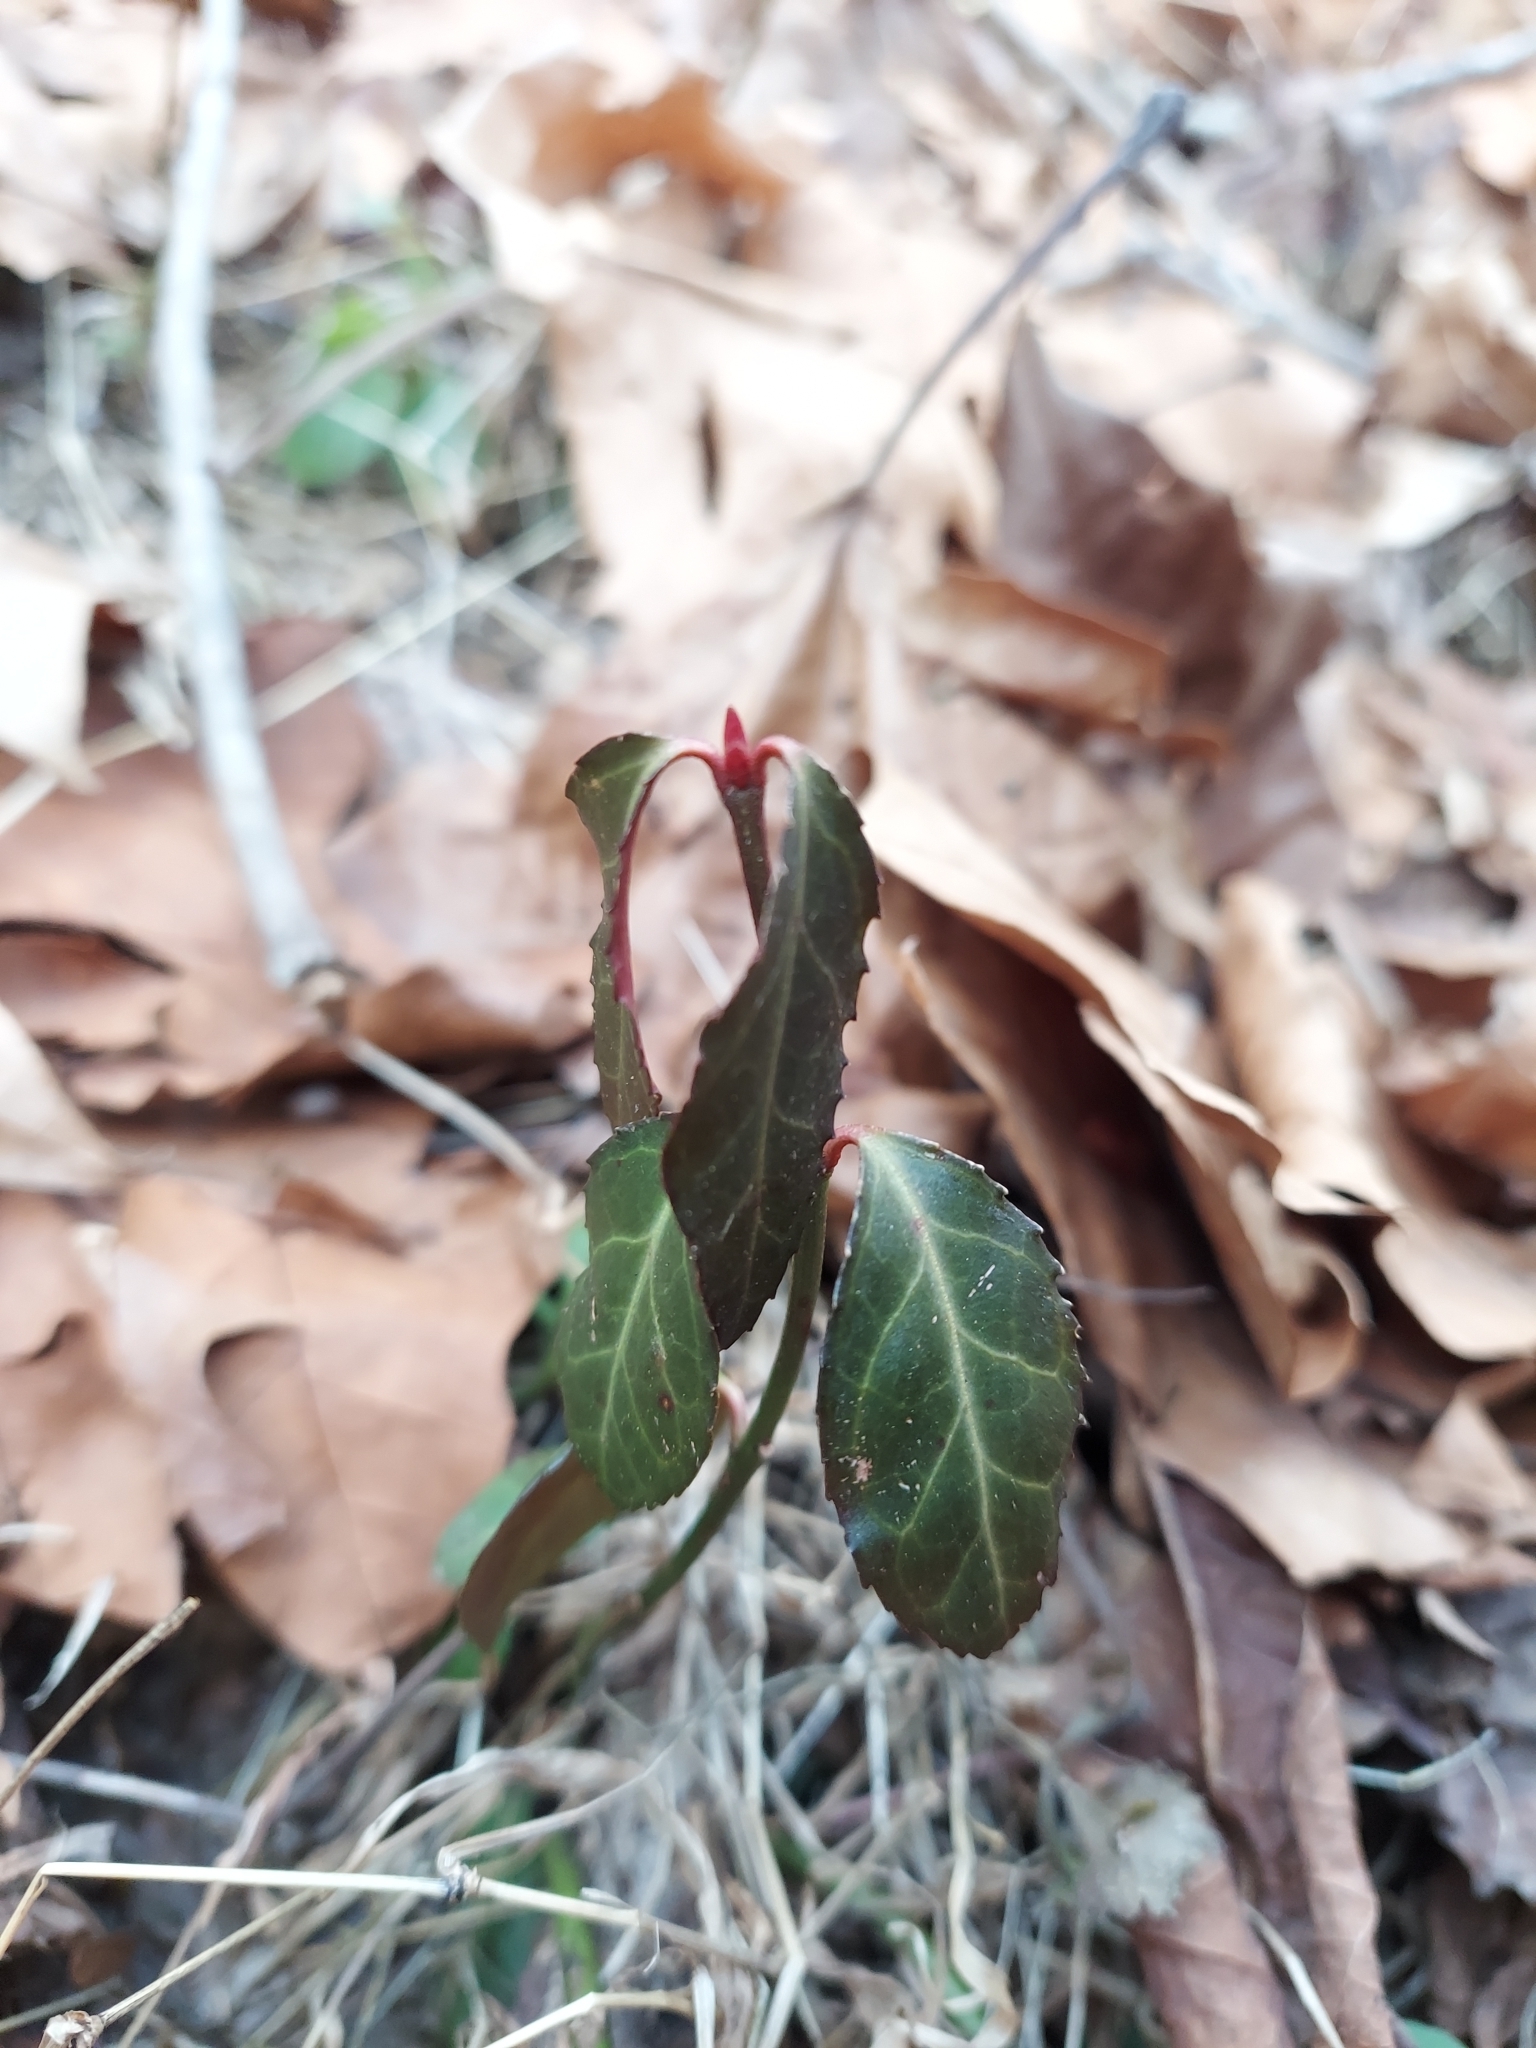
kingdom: Plantae
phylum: Tracheophyta
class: Magnoliopsida
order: Celastrales
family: Celastraceae
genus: Euonymus
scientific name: Euonymus fortunei
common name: Climbing euonymus
